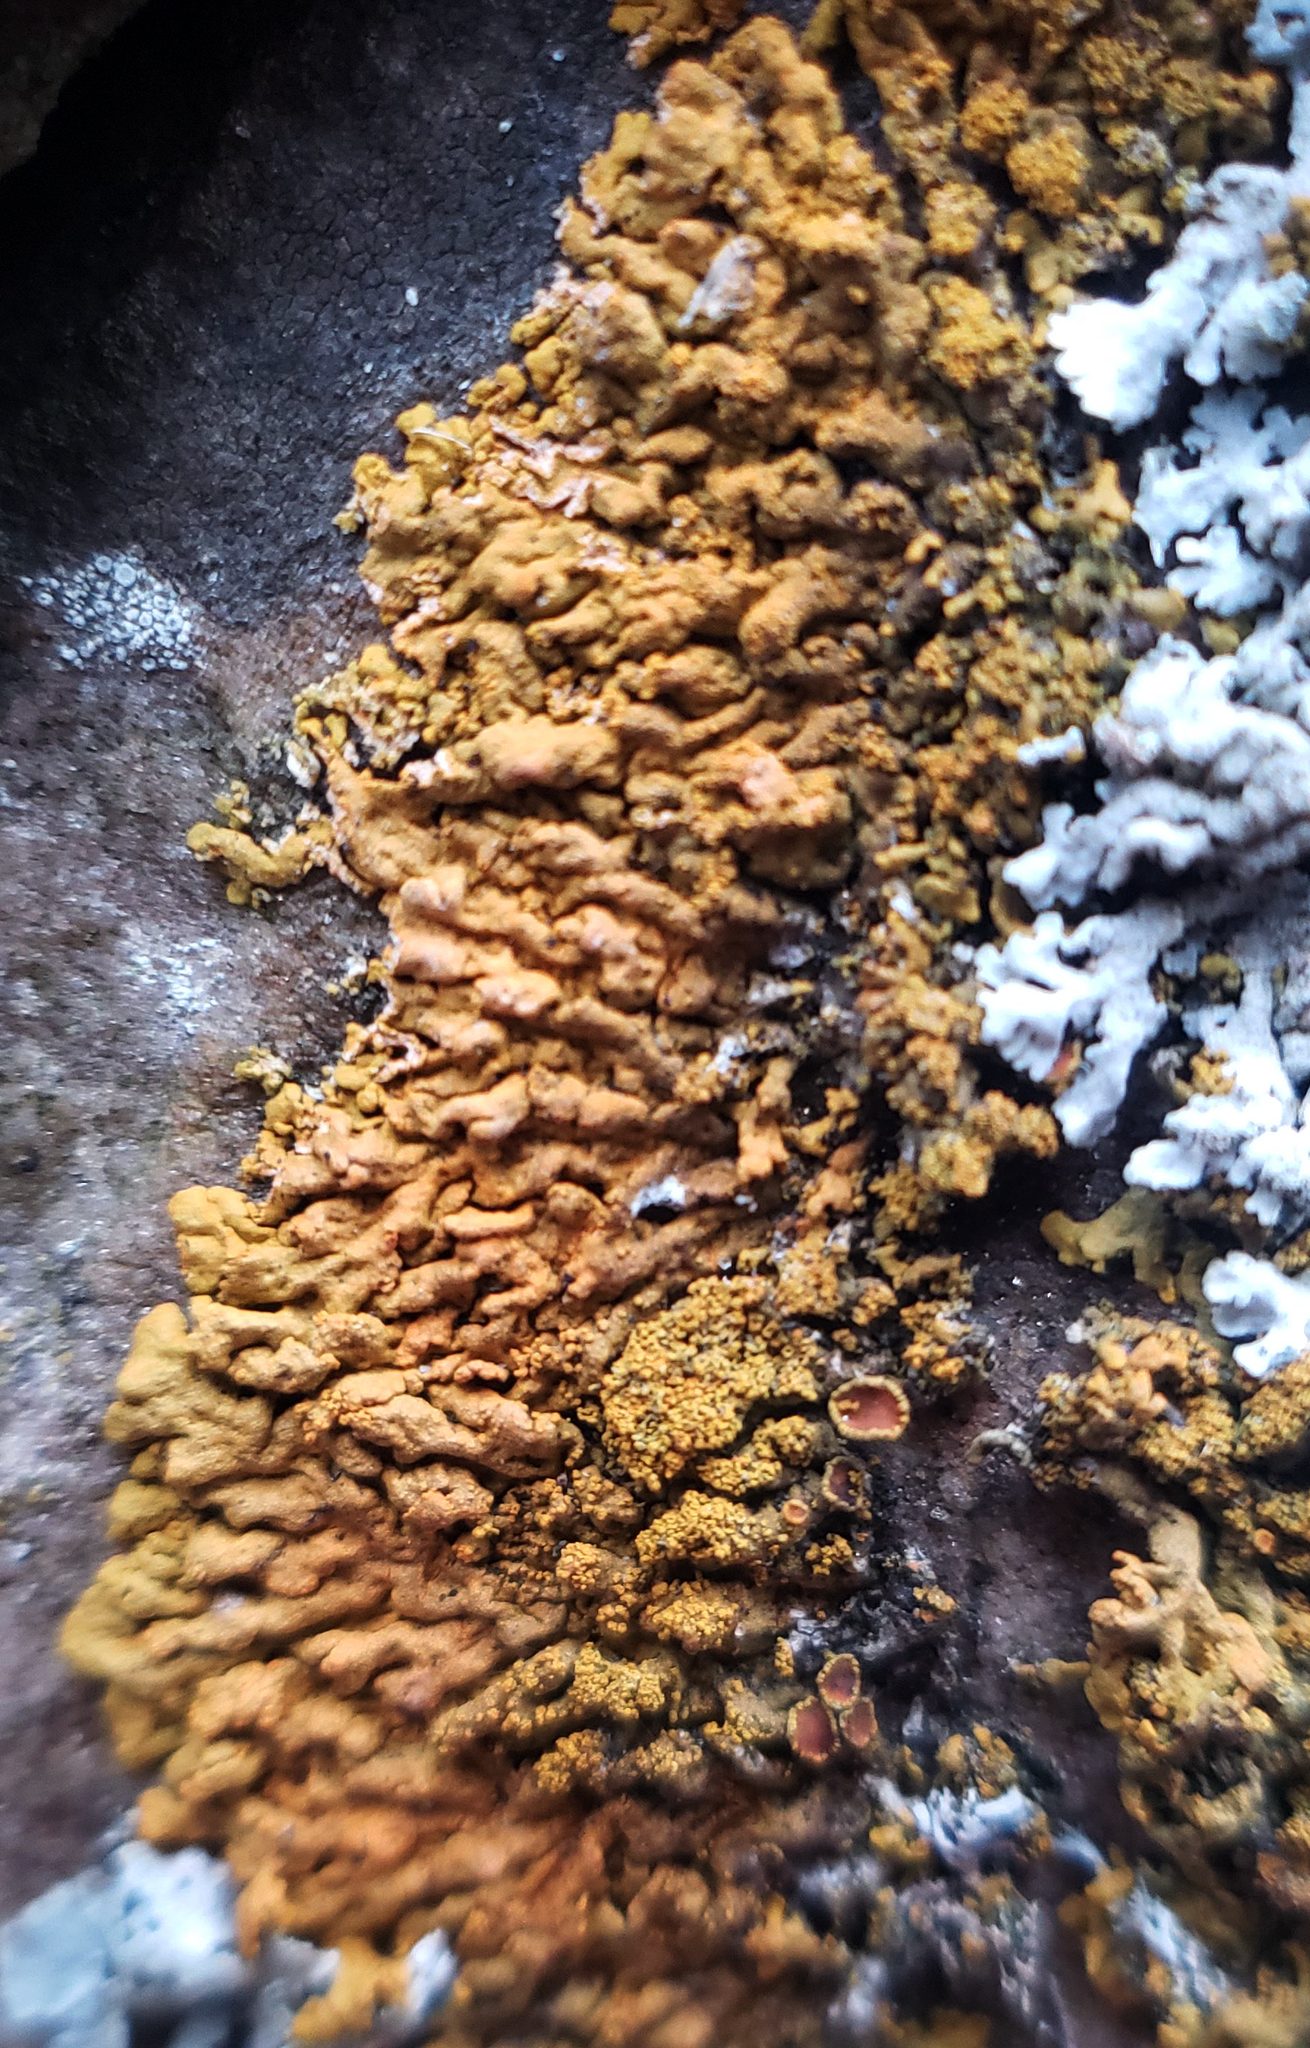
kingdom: Fungi
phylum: Ascomycota
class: Lecanoromycetes
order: Teloschistales
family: Teloschistaceae
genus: Rusavskia
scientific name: Rusavskia sorediata
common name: Sugared sunburst lichen
